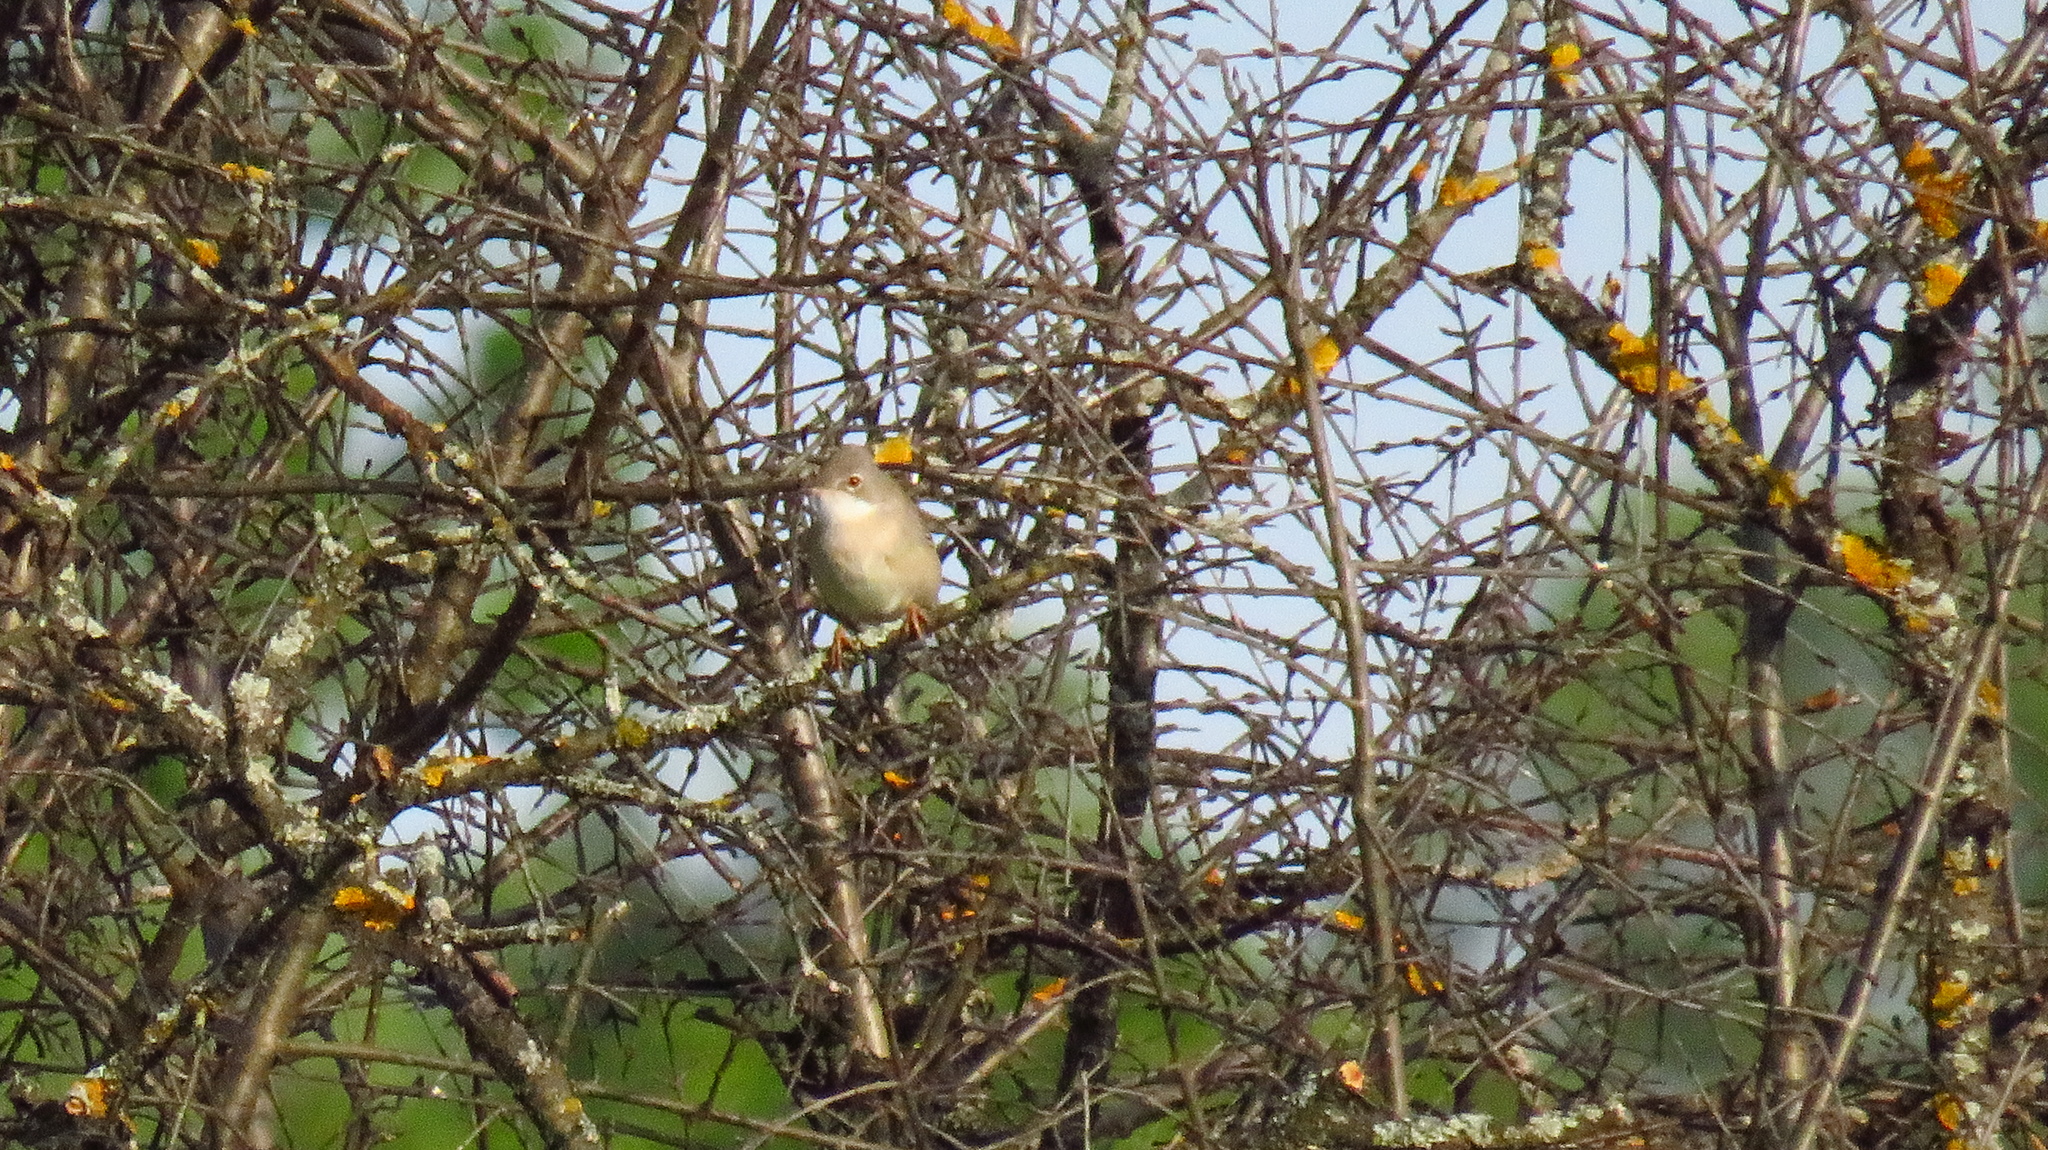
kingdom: Animalia
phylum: Chordata
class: Aves
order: Passeriformes
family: Sylviidae
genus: Sylvia
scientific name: Sylvia communis
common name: Common whitethroat
